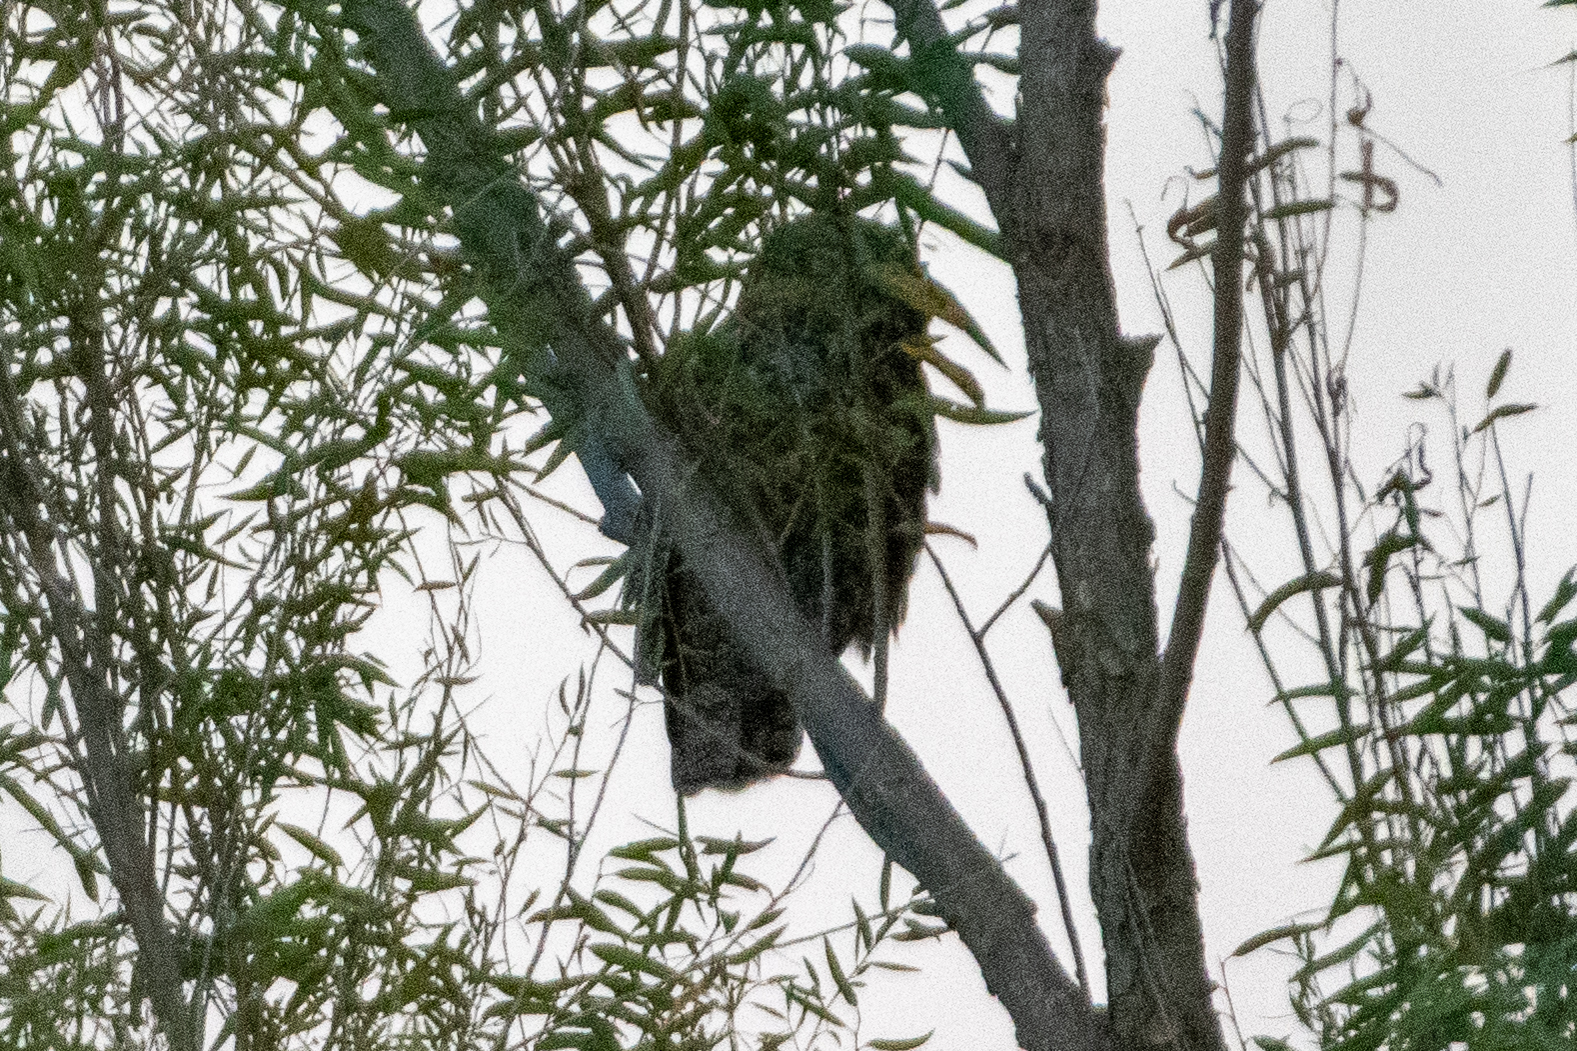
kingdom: Animalia
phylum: Chordata
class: Aves
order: Strigiformes
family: Strigidae
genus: Bubo
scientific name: Bubo virginianus
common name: Great horned owl
